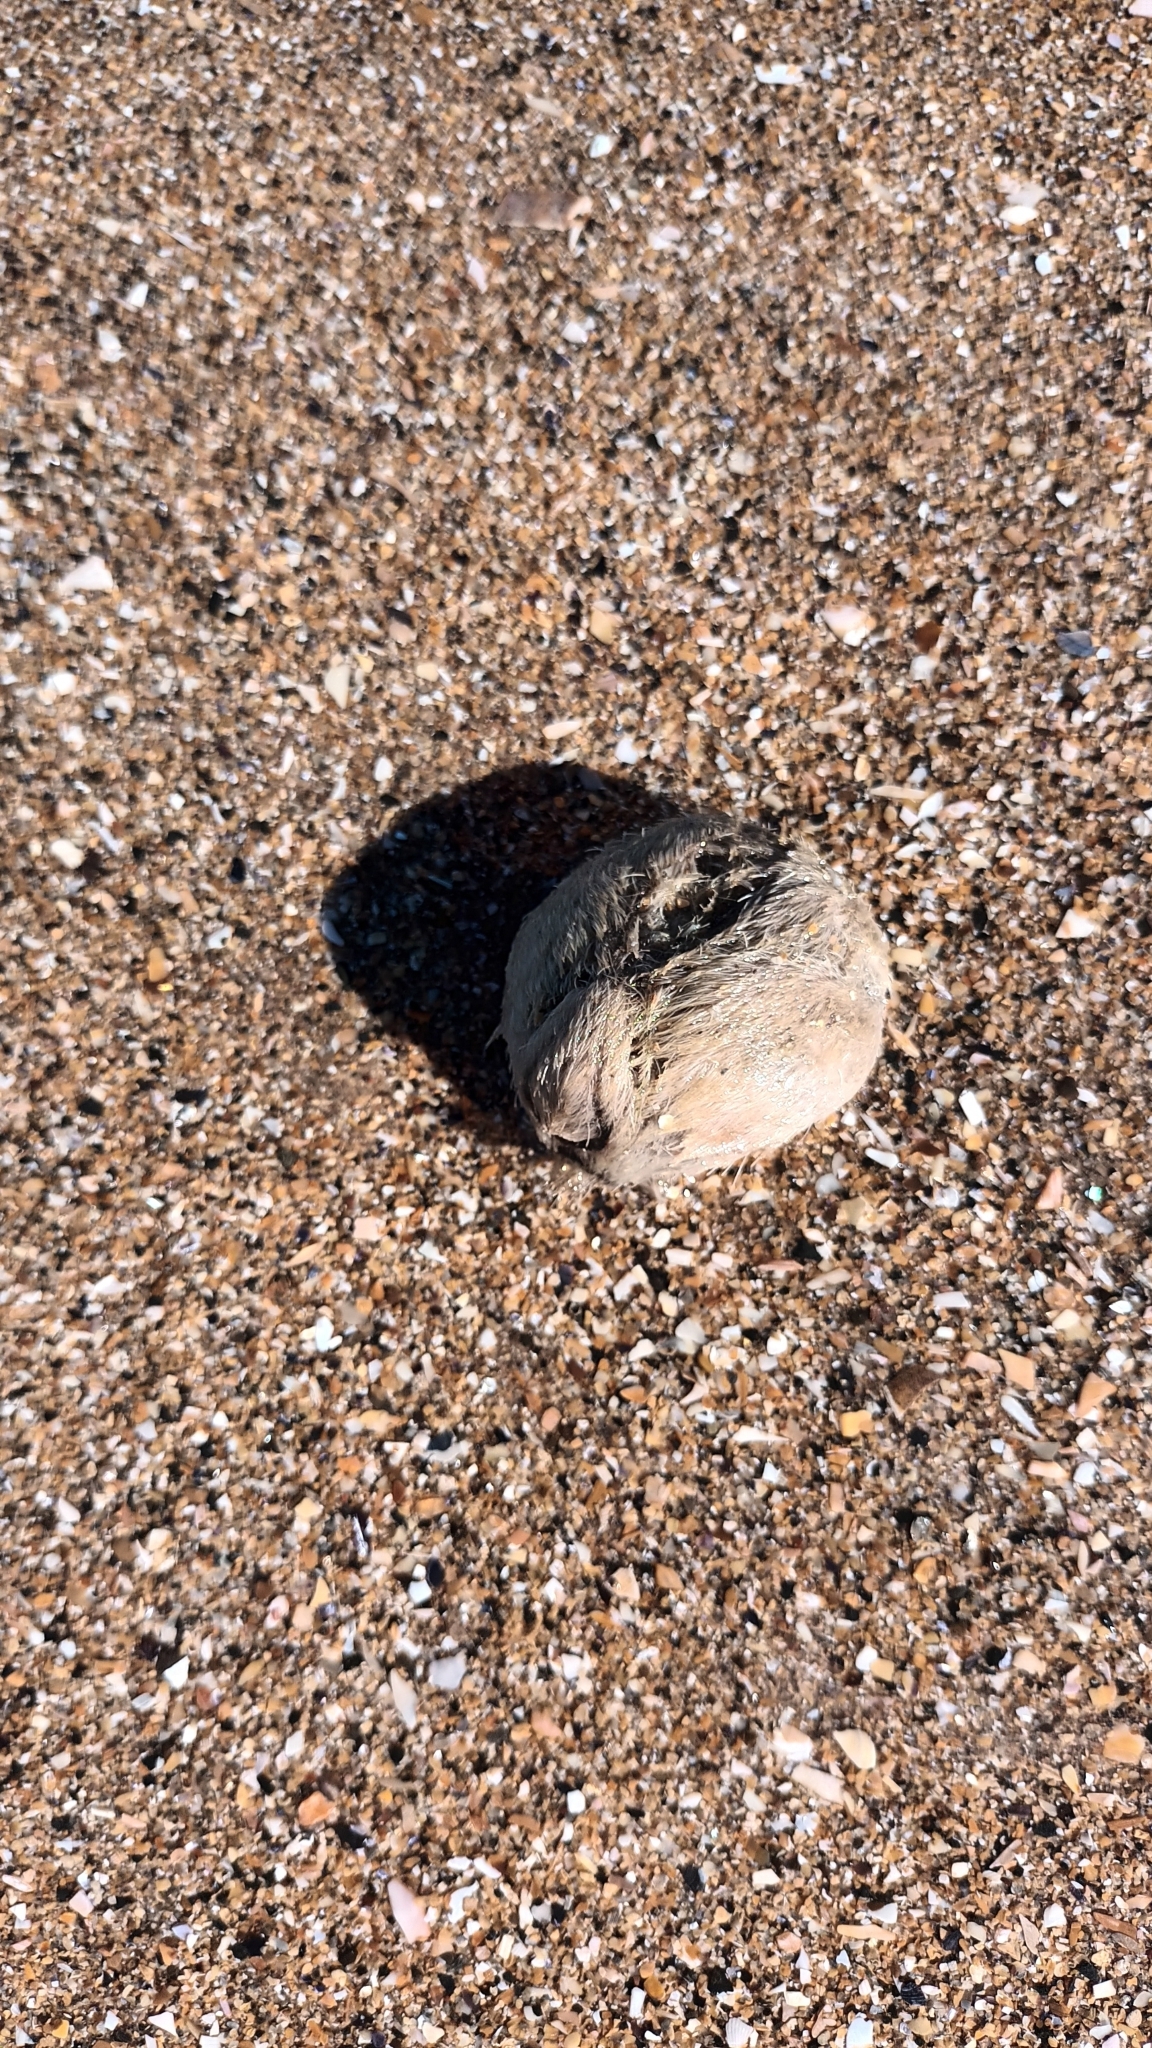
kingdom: Animalia
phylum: Echinodermata
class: Echinoidea
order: Spatangoida
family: Loveniidae
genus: Echinocardium
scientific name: Echinocardium cordatum
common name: Heart-urchin
